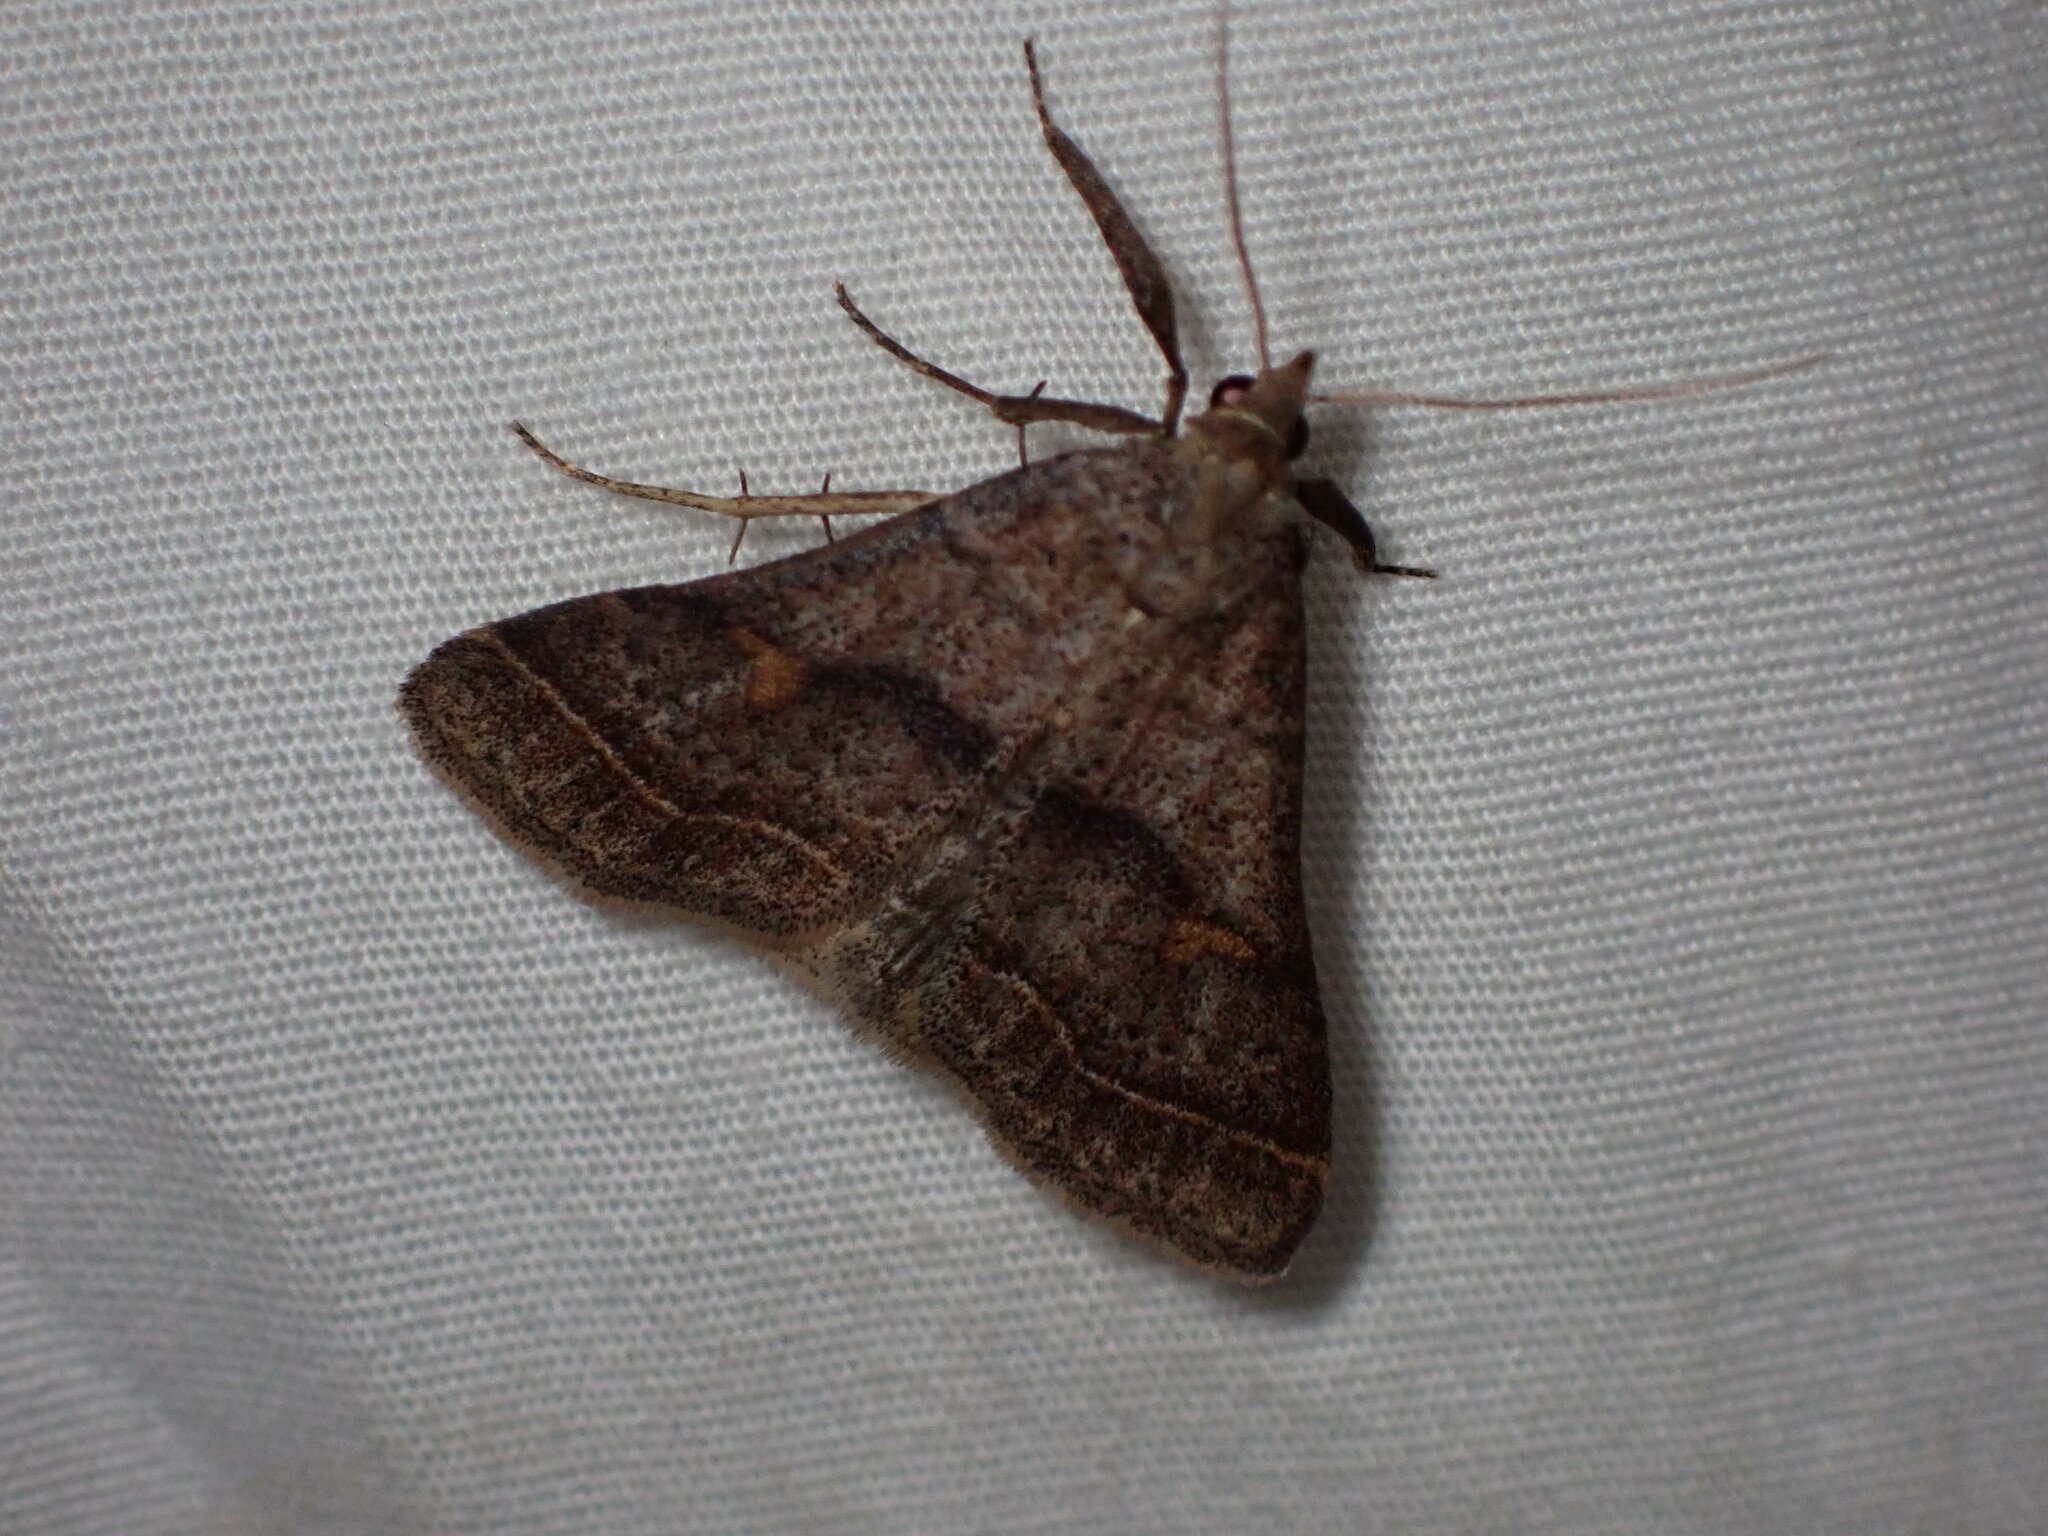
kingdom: Animalia
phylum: Arthropoda
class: Insecta
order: Lepidoptera
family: Erebidae
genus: Renia
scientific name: Renia flavipunctalis
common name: Yellow-spotted renia moth
